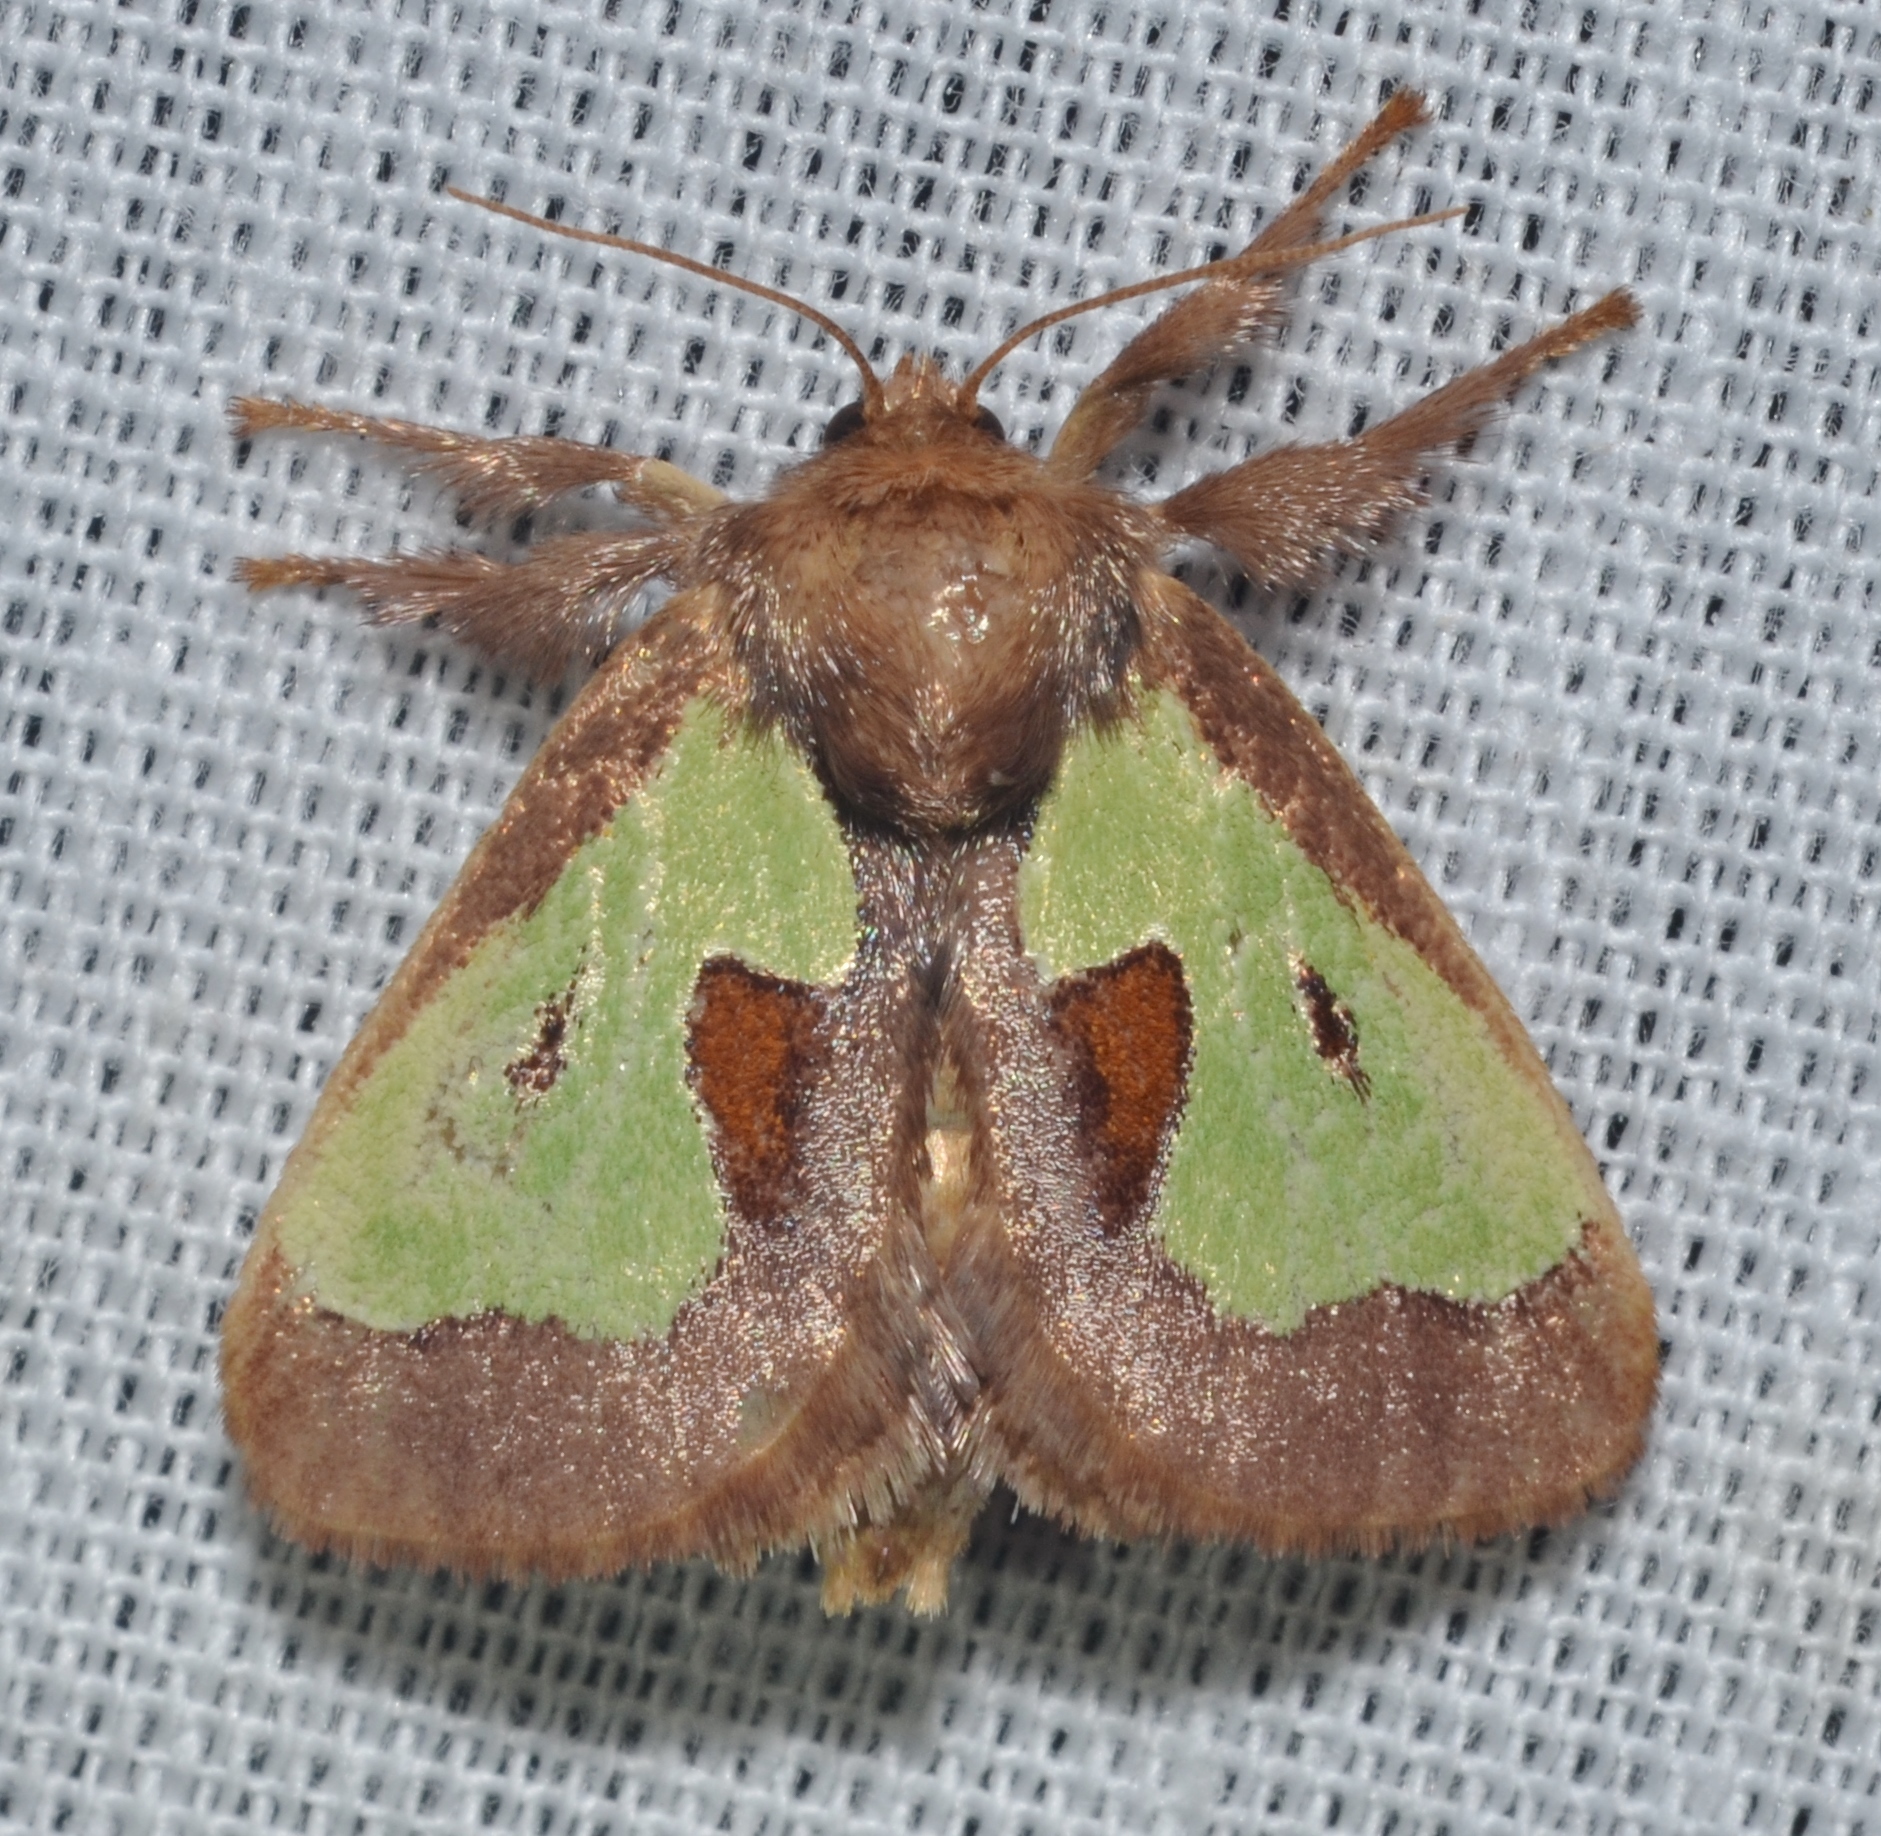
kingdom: Animalia
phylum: Arthropoda
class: Insecta
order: Lepidoptera
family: Limacodidae
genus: Euclea
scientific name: Euclea delphinii
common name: Spiny oak-slug moth
